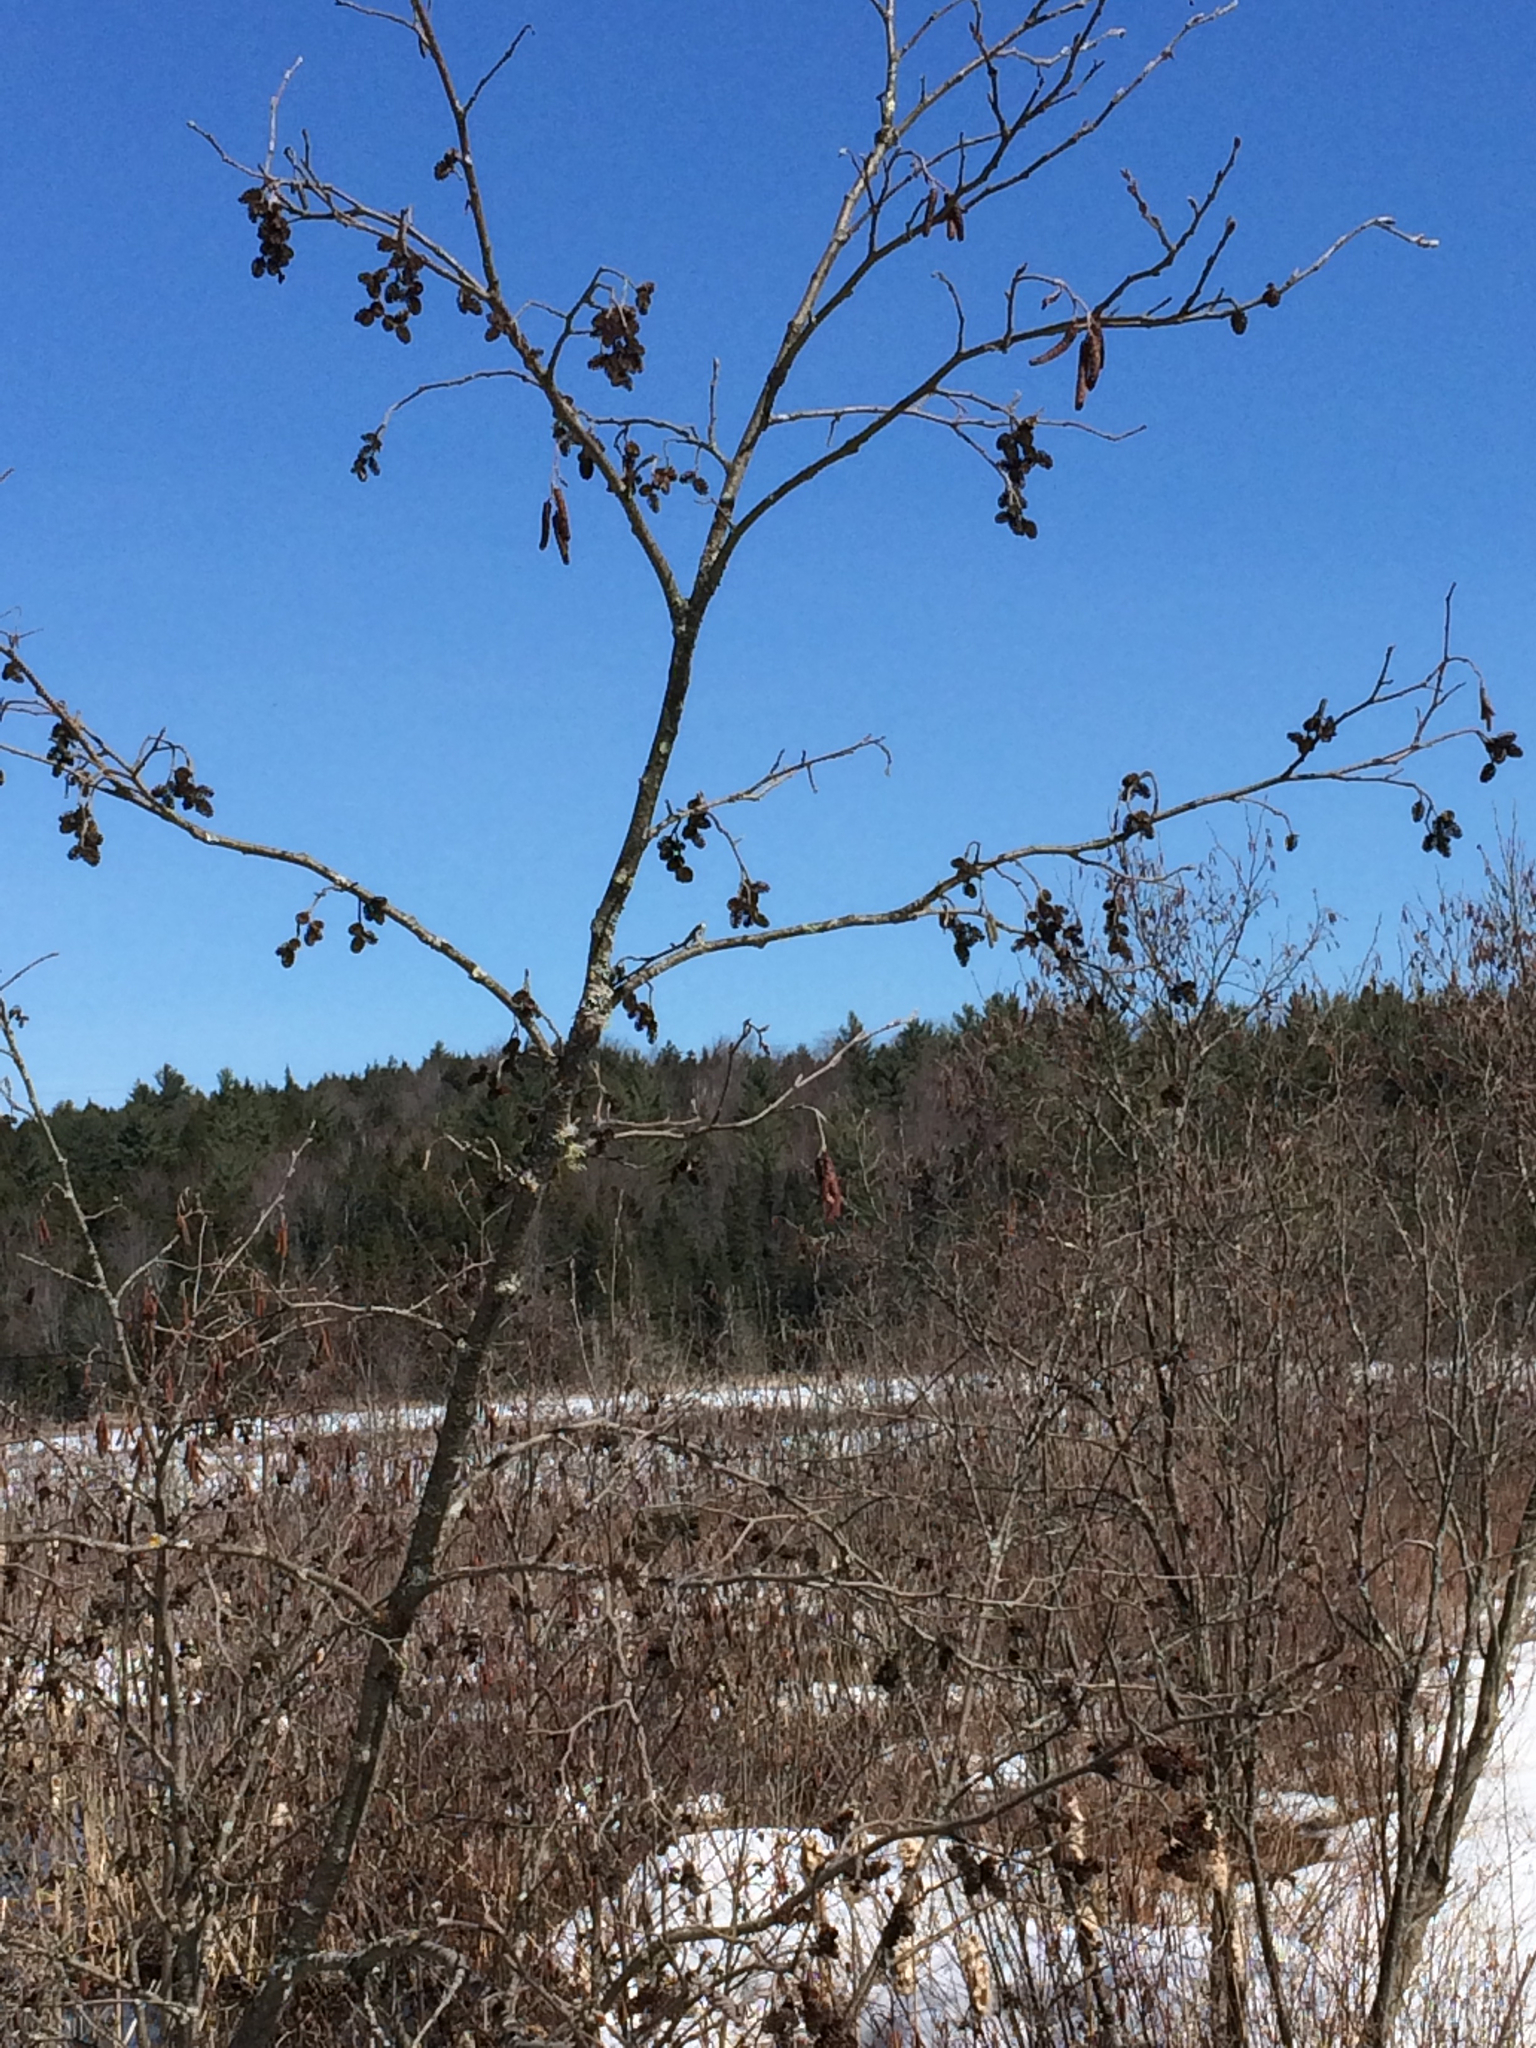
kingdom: Plantae
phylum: Tracheophyta
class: Magnoliopsida
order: Fagales
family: Betulaceae
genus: Alnus
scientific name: Alnus incana
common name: Grey alder
